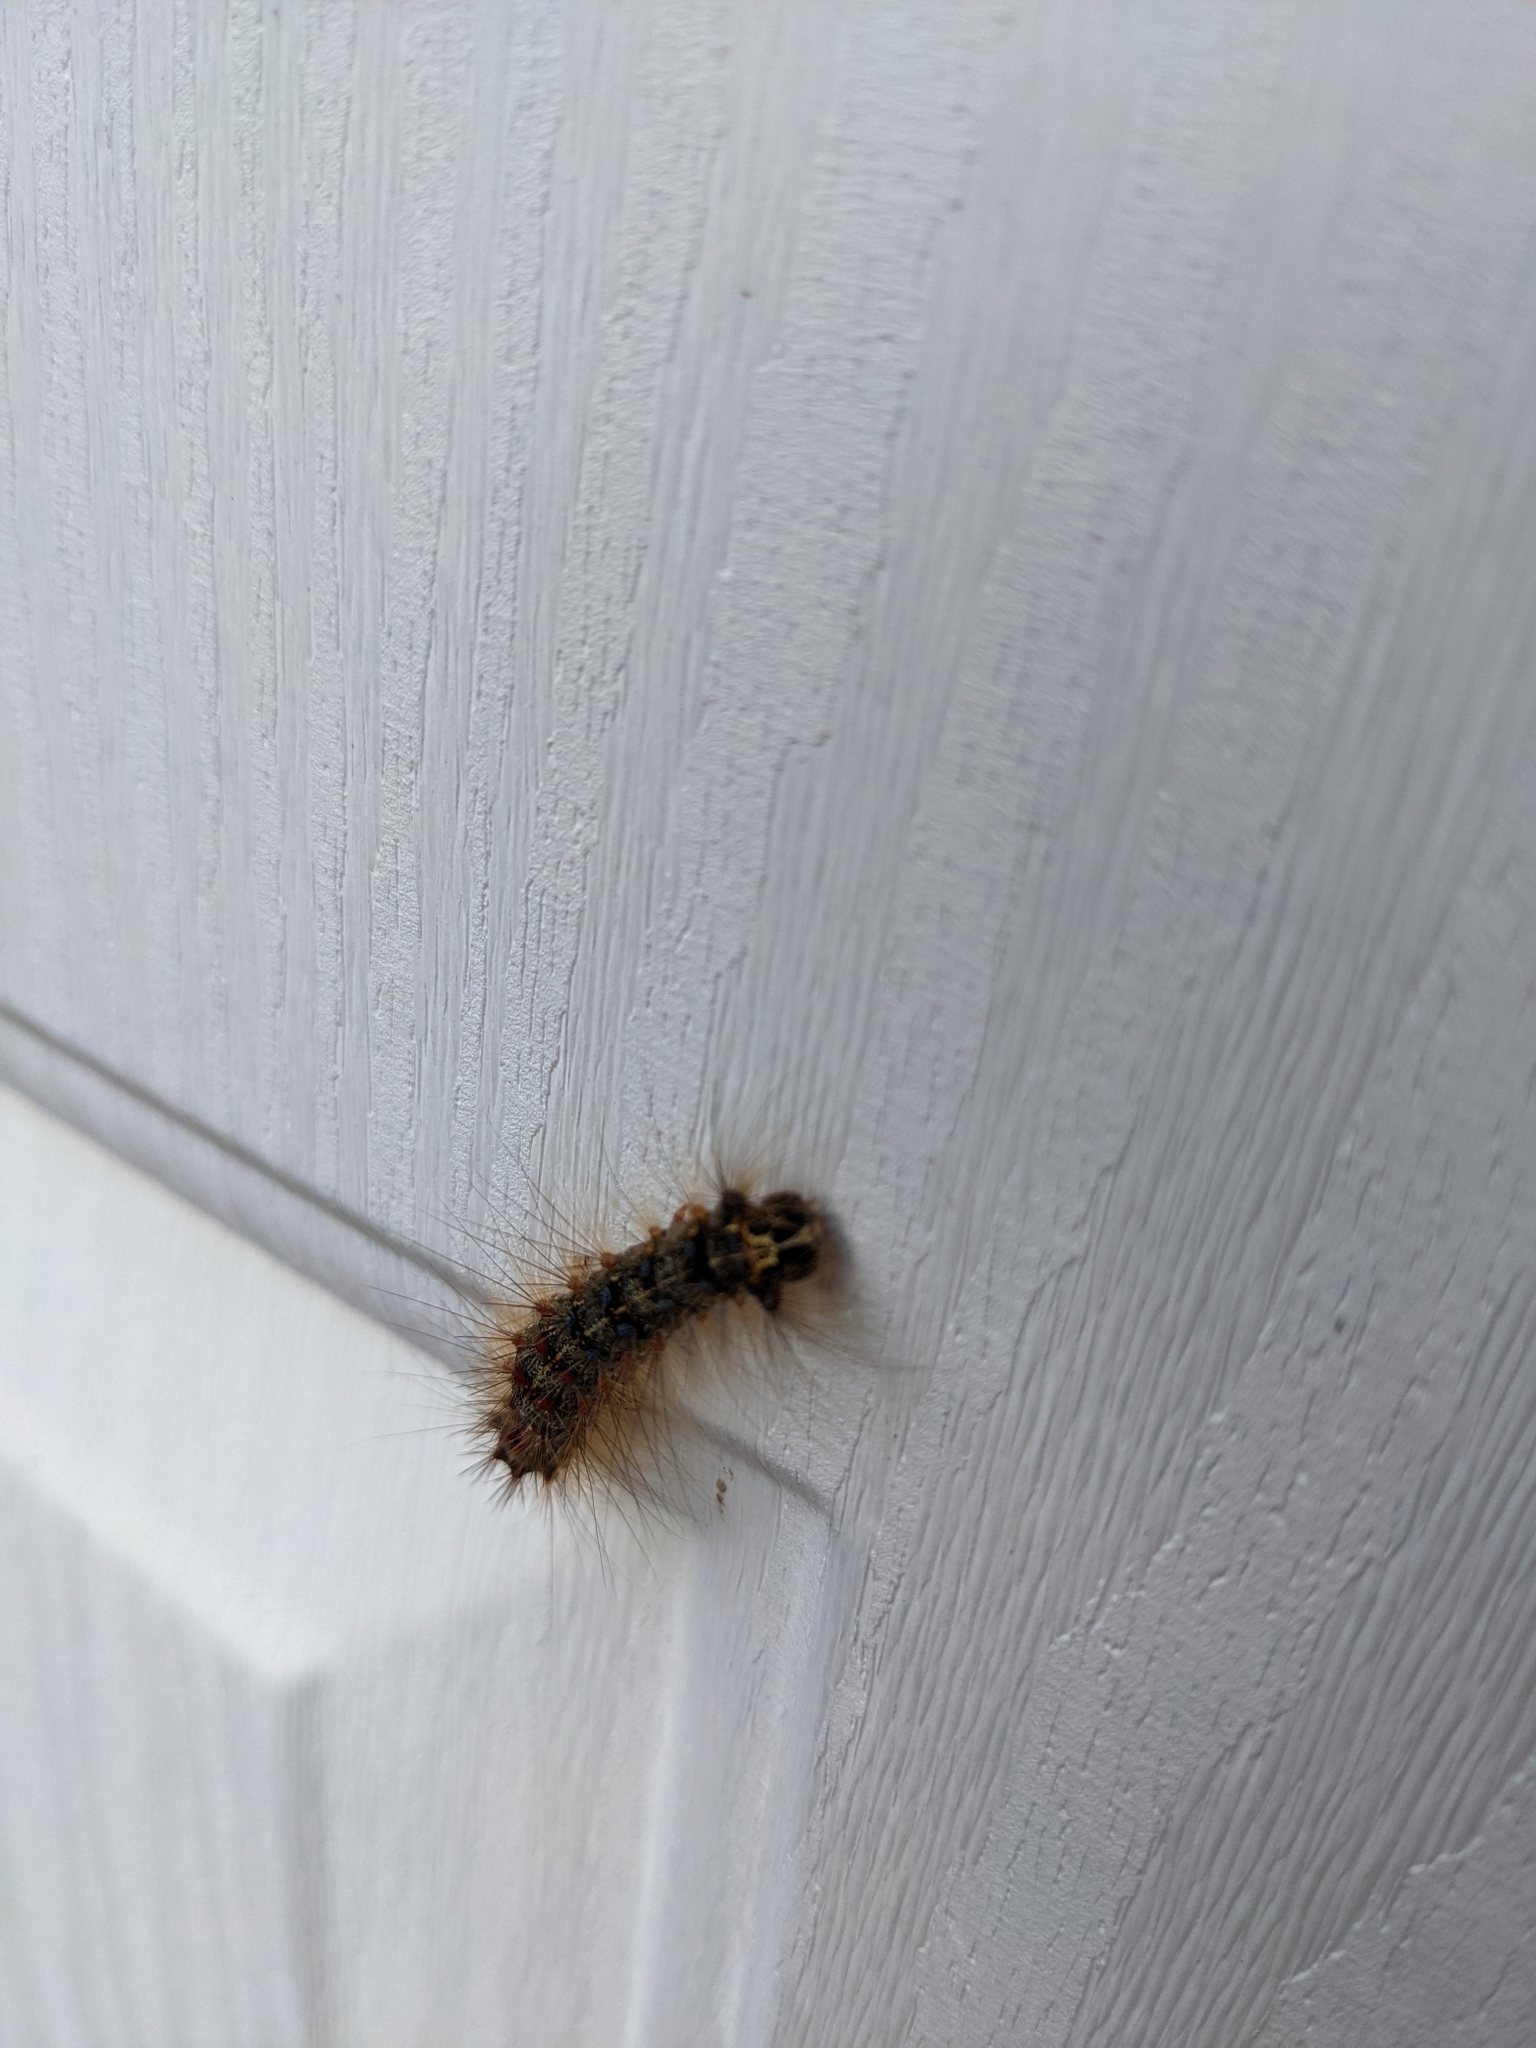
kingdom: Animalia
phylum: Arthropoda
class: Insecta
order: Lepidoptera
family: Erebidae
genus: Lymantria
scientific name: Lymantria dispar
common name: Gypsy moth
